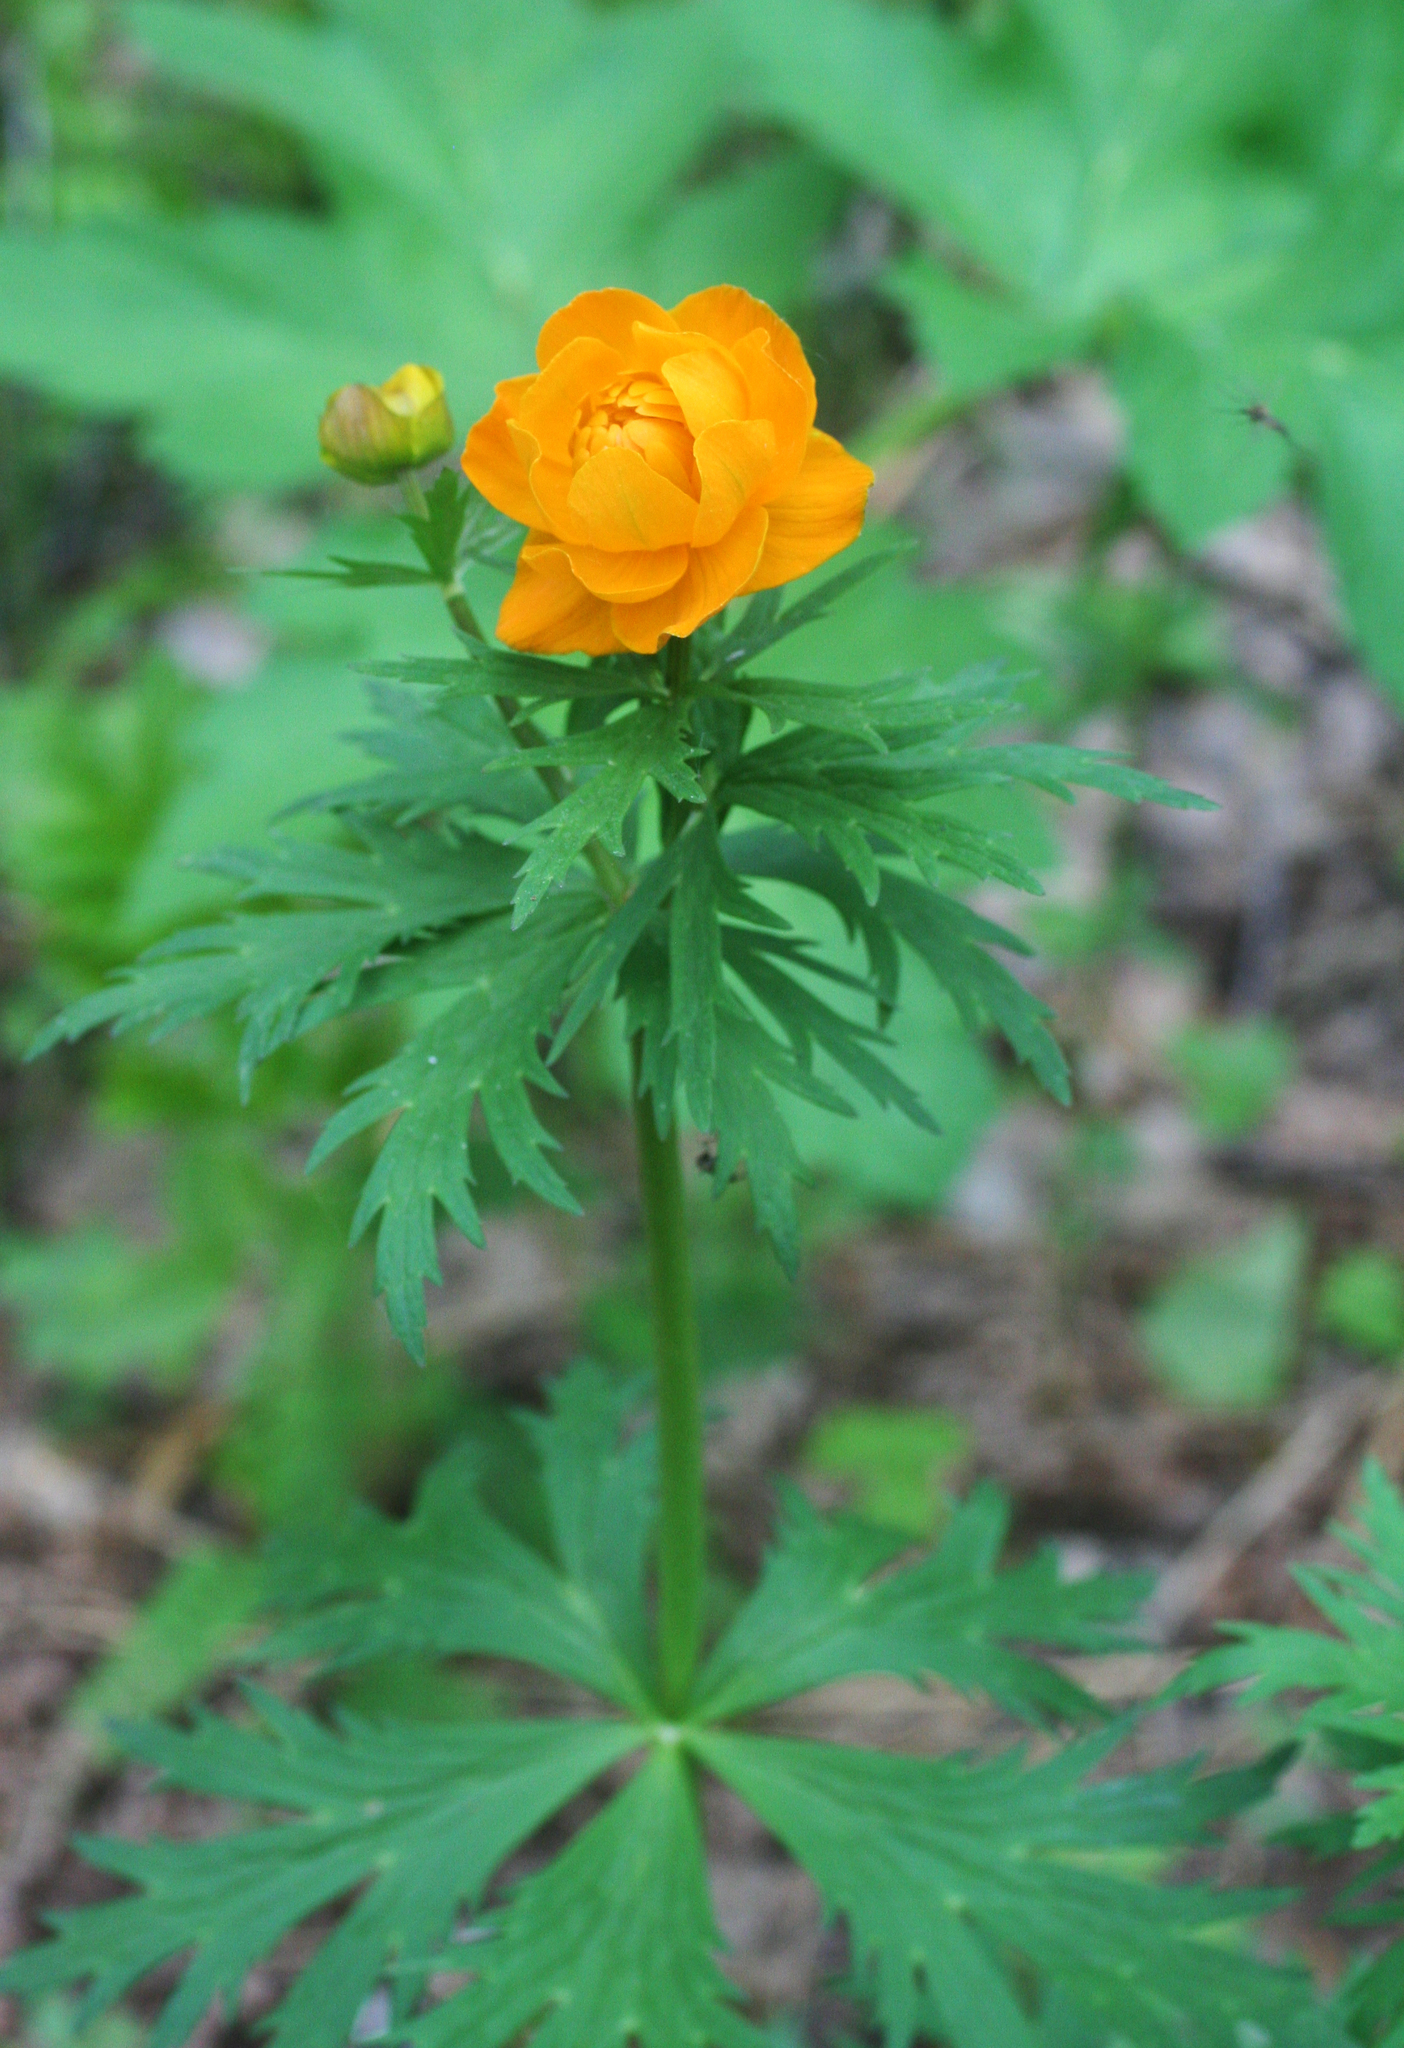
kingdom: Plantae
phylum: Tracheophyta
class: Magnoliopsida
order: Ranunculales
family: Ranunculaceae
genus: Trollius
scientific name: Trollius asiaticus
